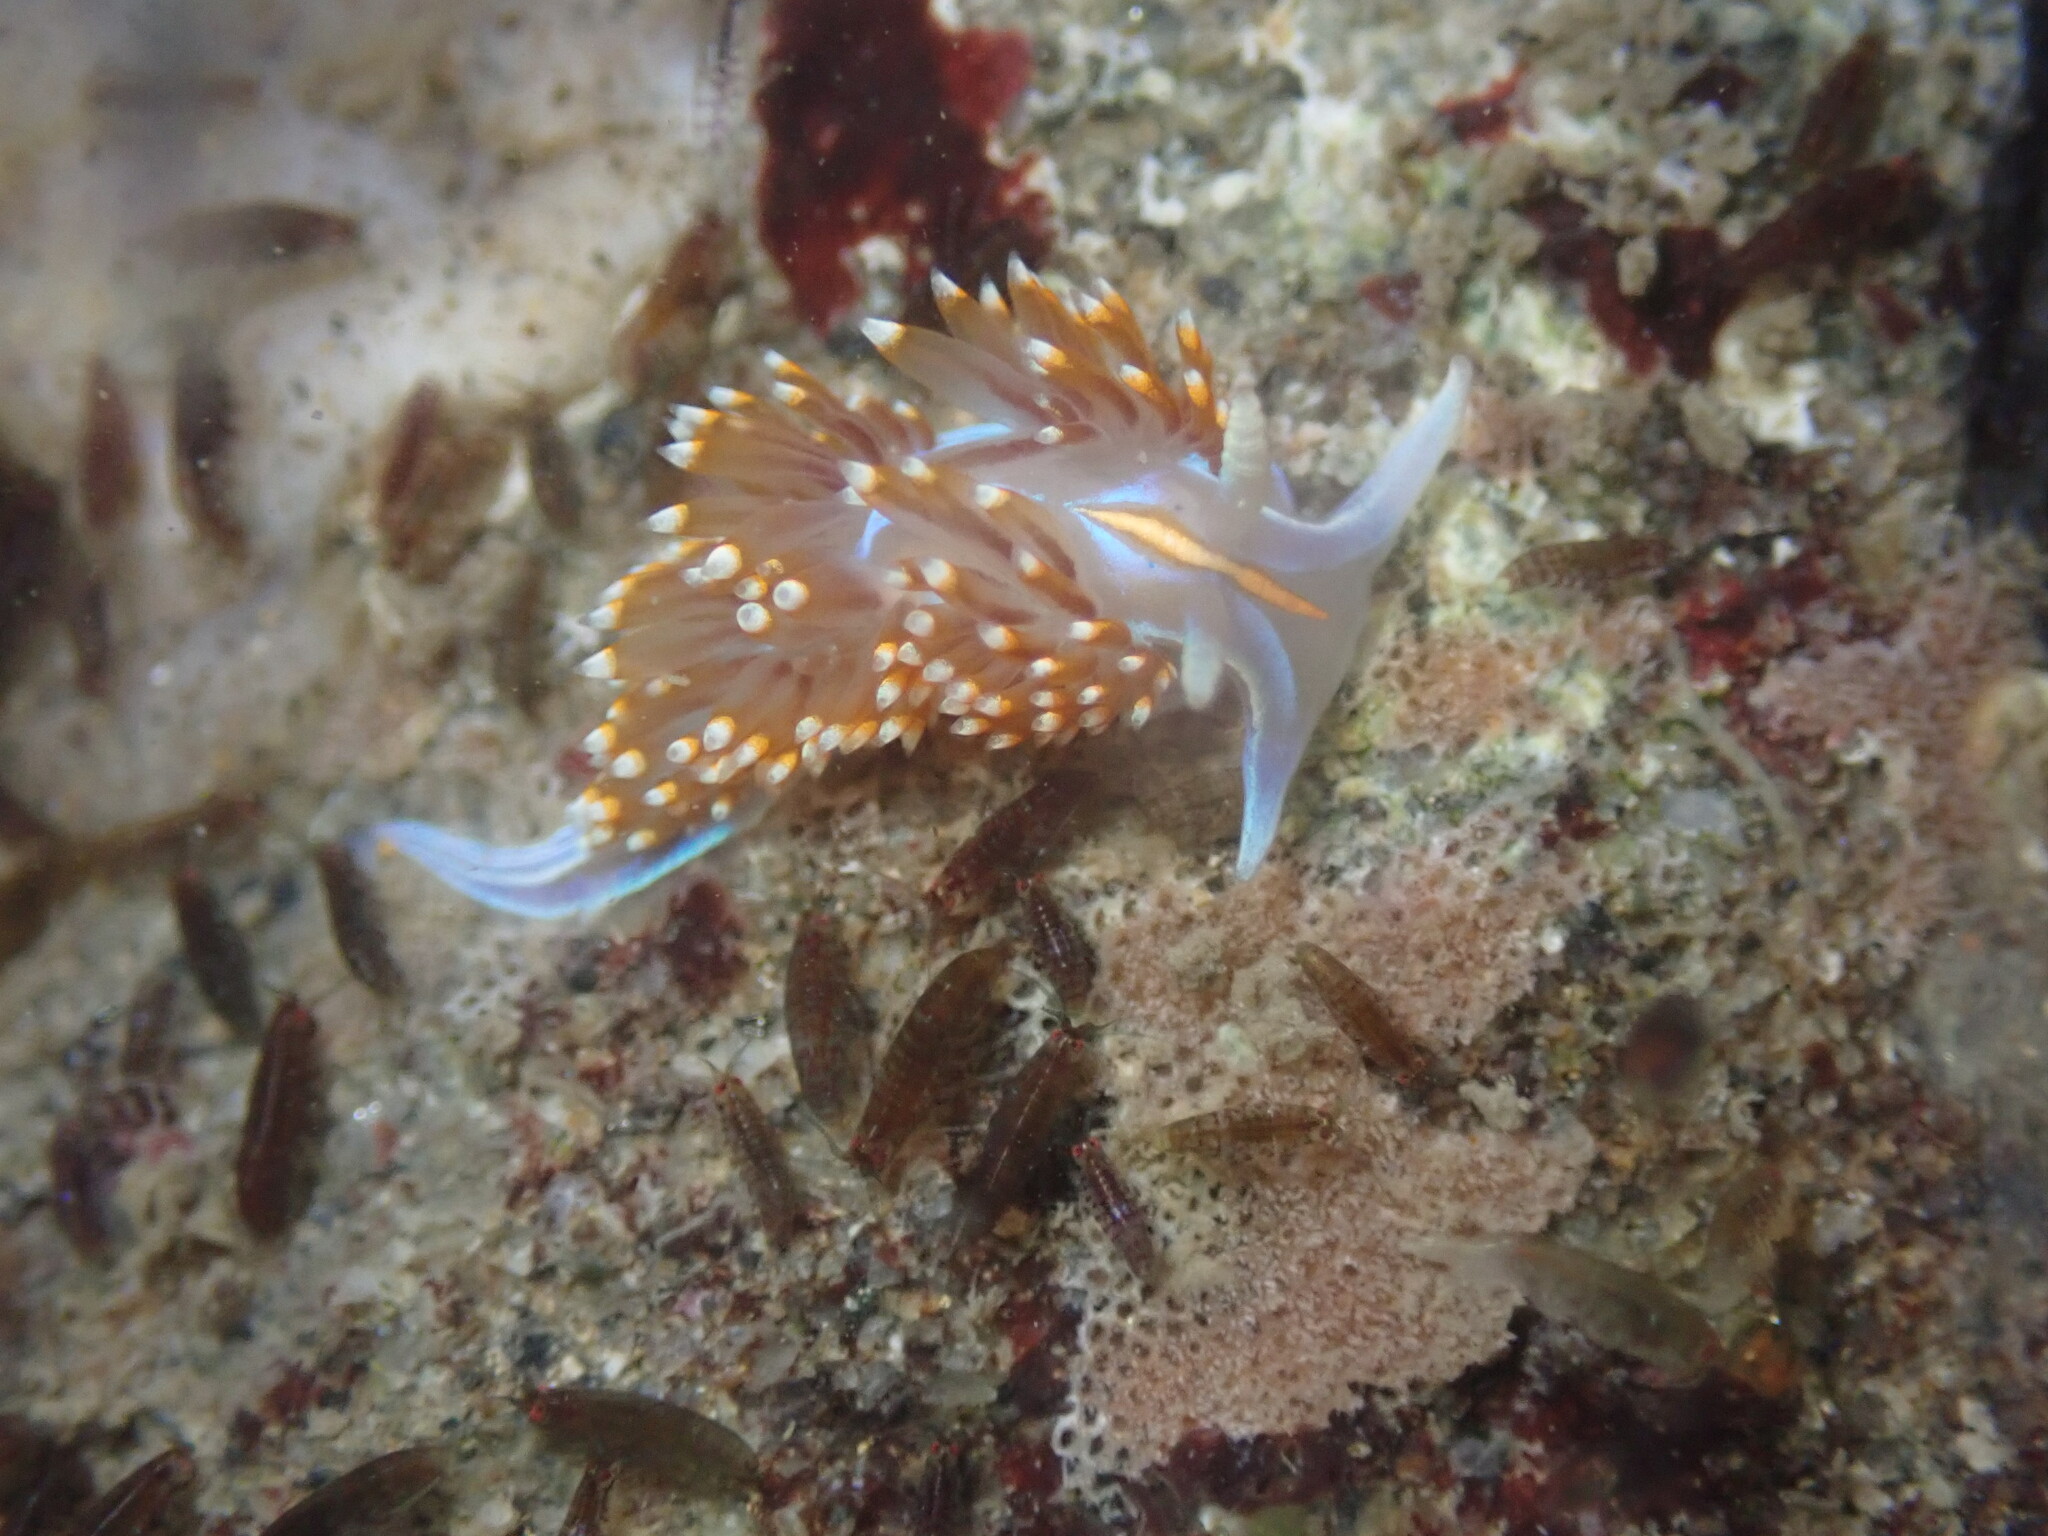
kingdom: Animalia
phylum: Mollusca
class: Gastropoda
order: Nudibranchia
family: Myrrhinidae
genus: Hermissenda
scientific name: Hermissenda opalescens
